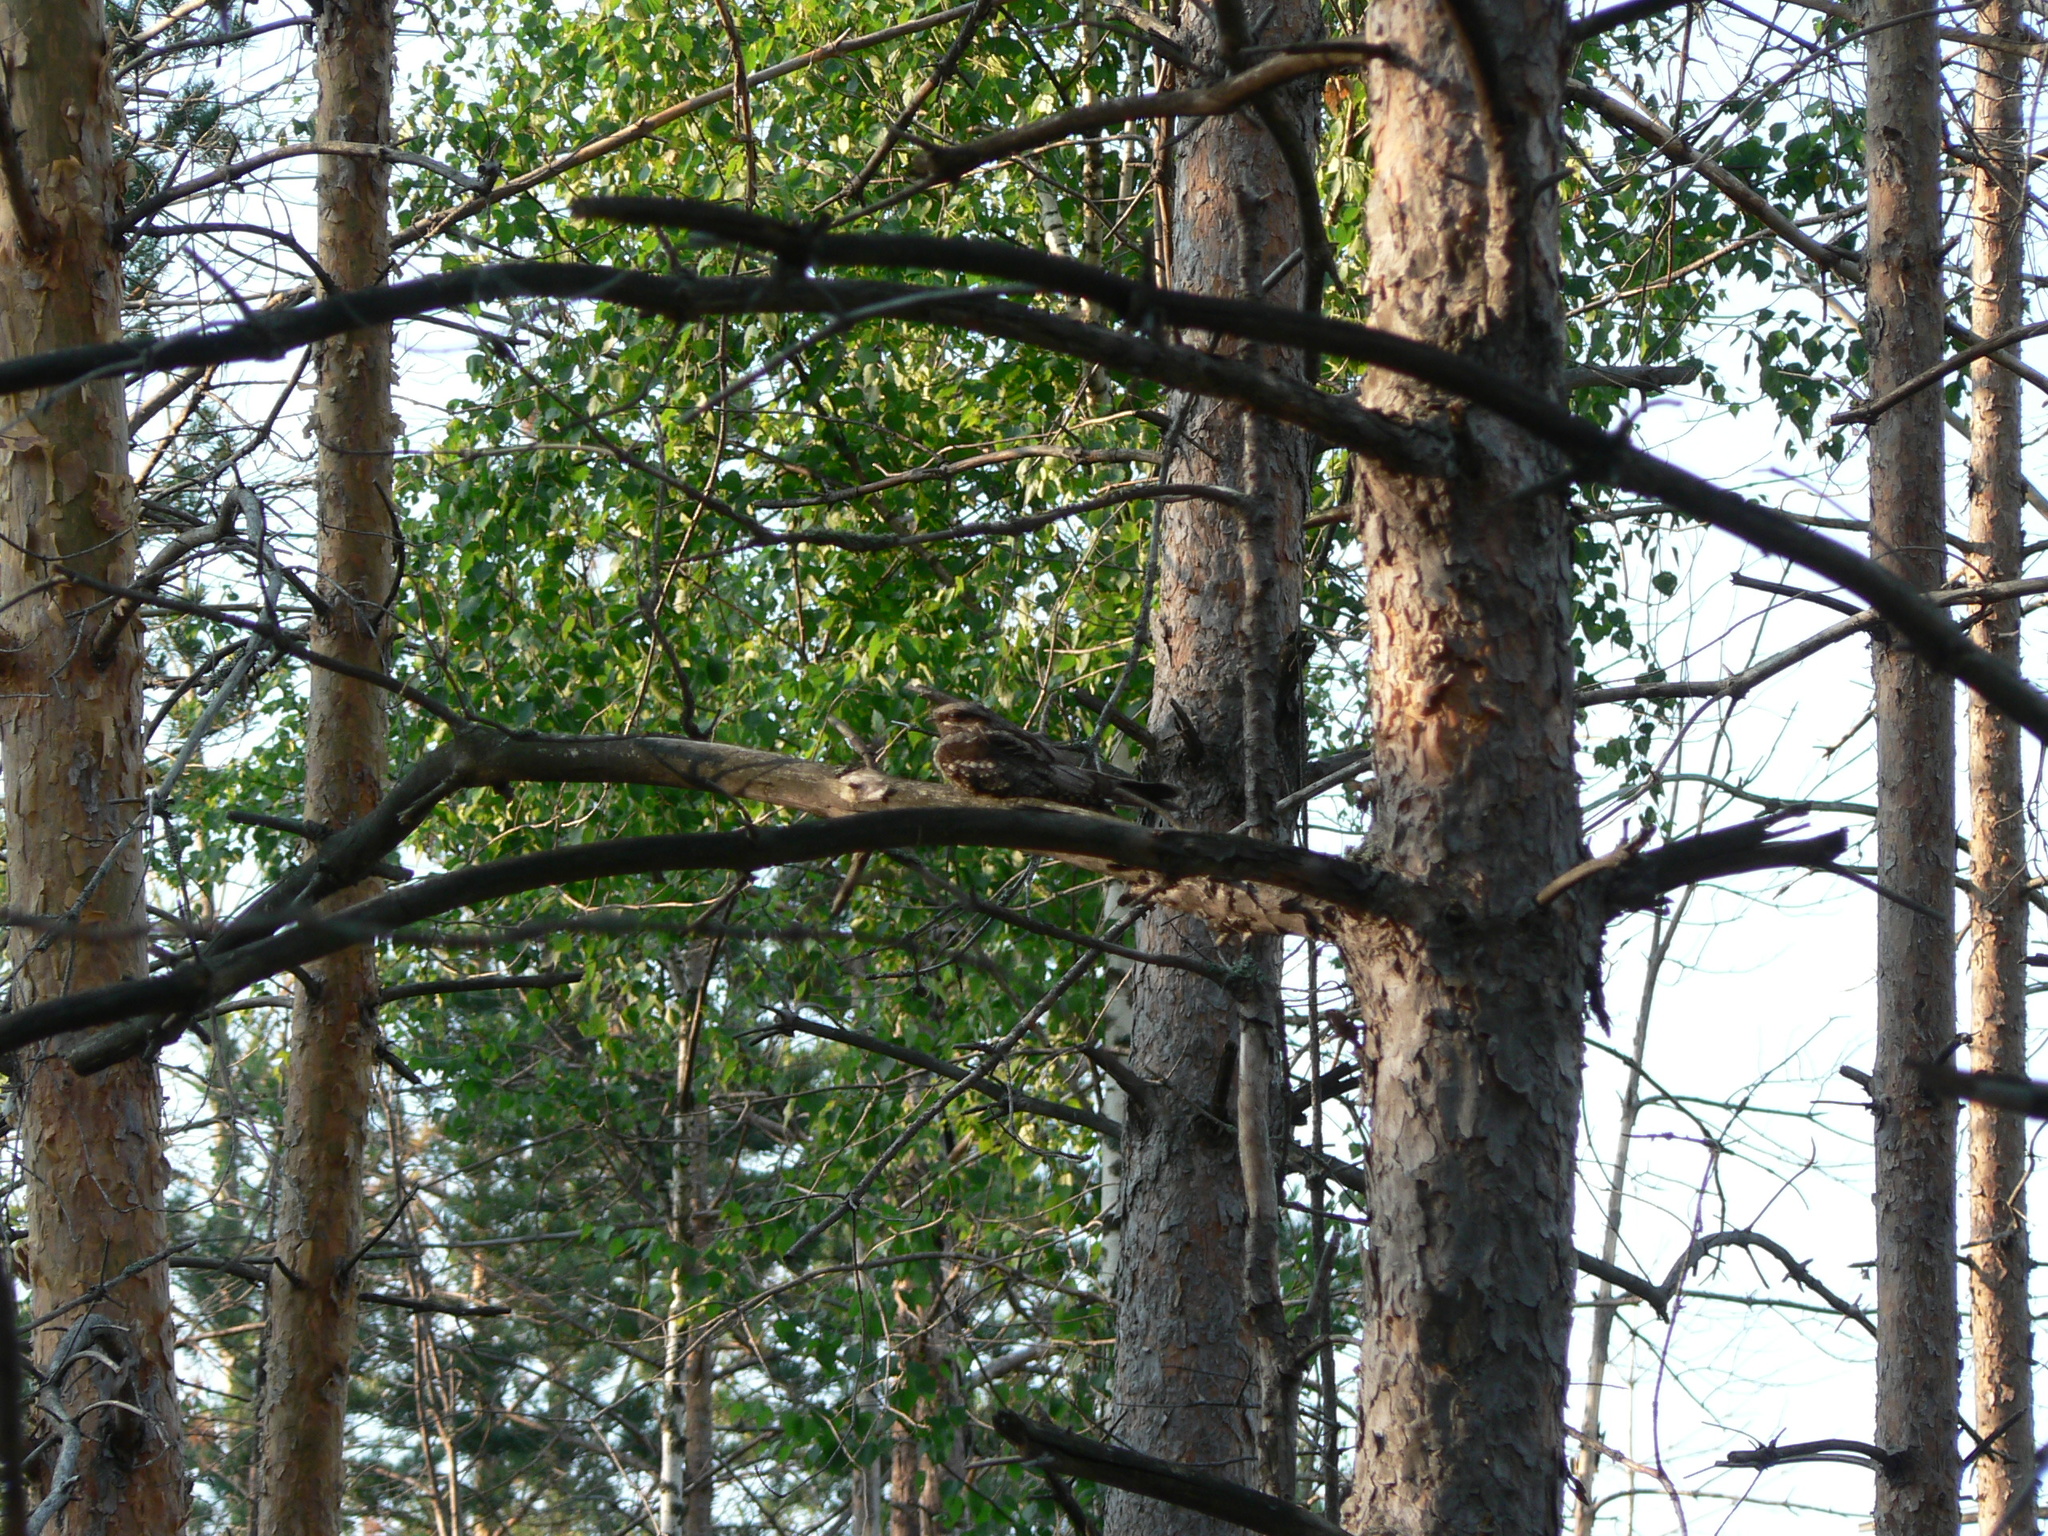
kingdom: Animalia
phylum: Chordata
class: Aves
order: Caprimulgiformes
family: Caprimulgidae
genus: Caprimulgus
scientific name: Caprimulgus europaeus
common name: European nightjar
